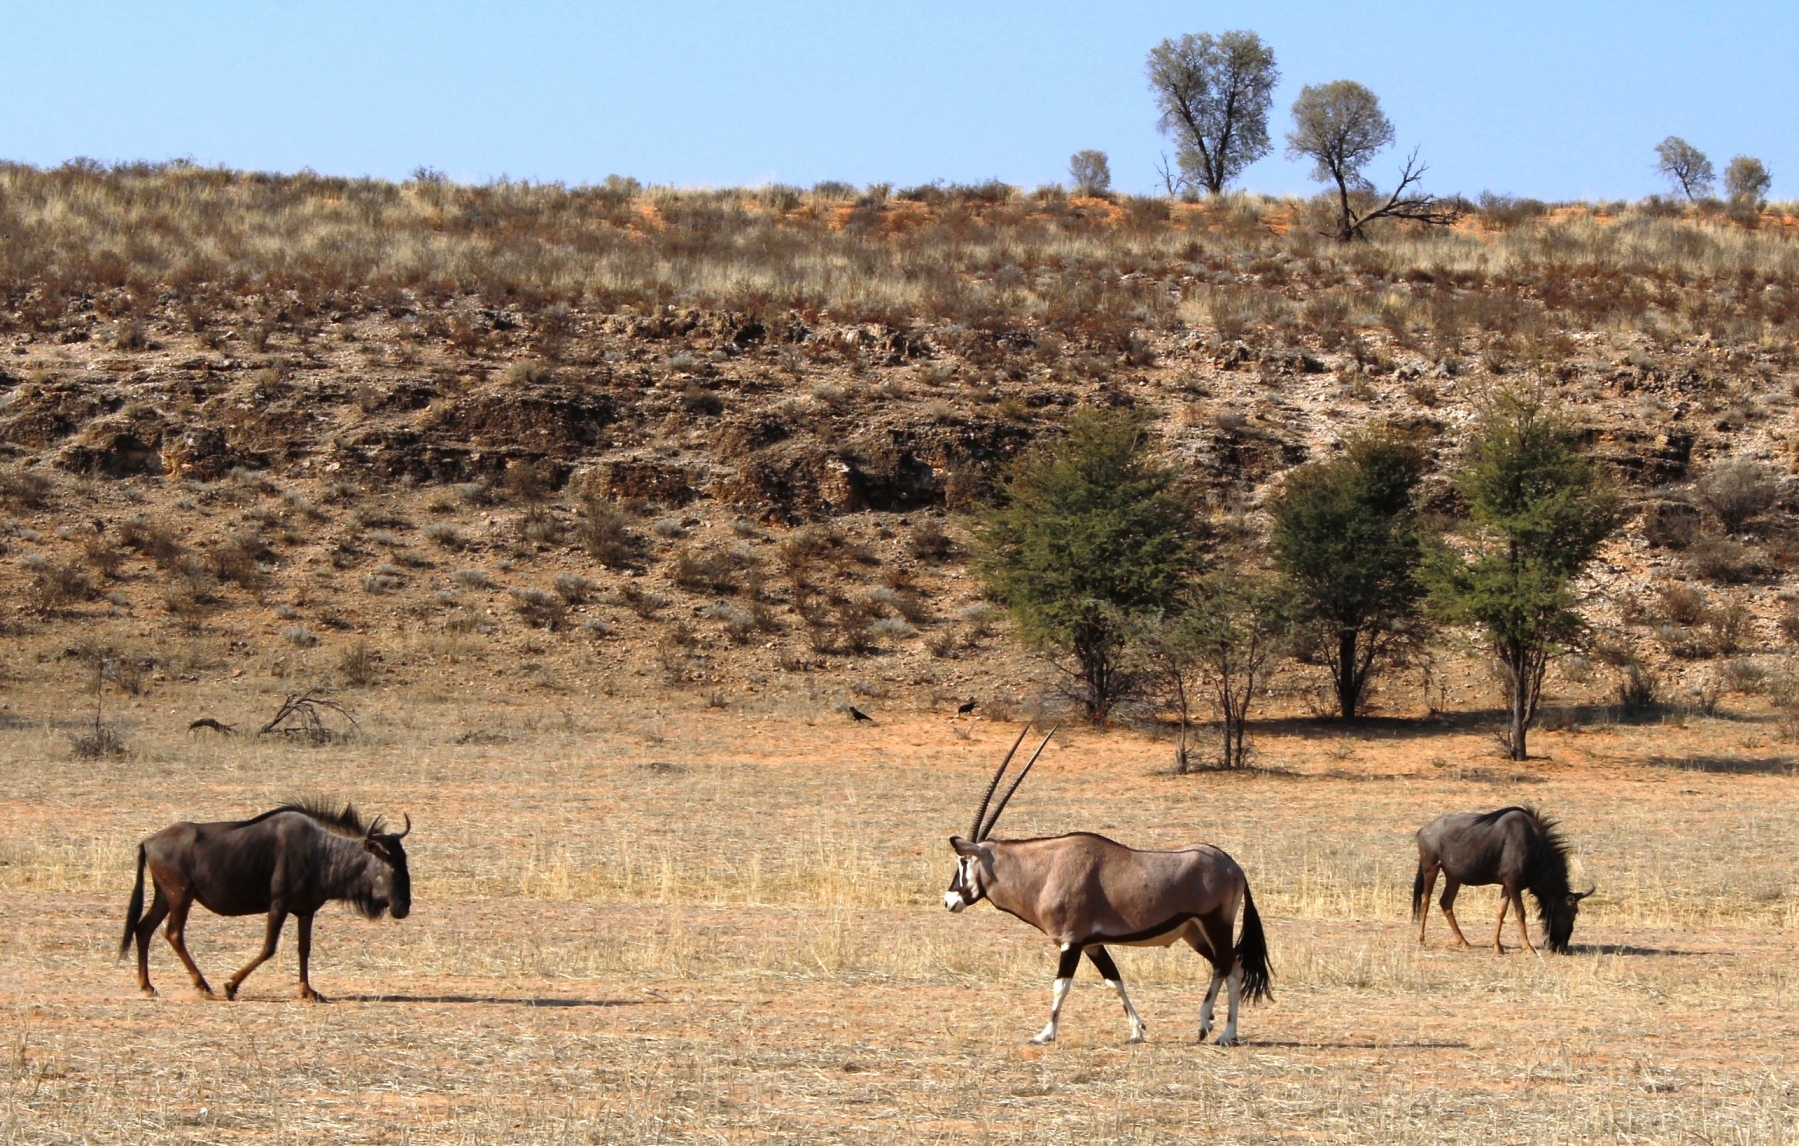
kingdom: Animalia
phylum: Chordata
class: Mammalia
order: Artiodactyla
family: Bovidae
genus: Connochaetes
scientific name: Connochaetes taurinus
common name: Blue wildebeest
